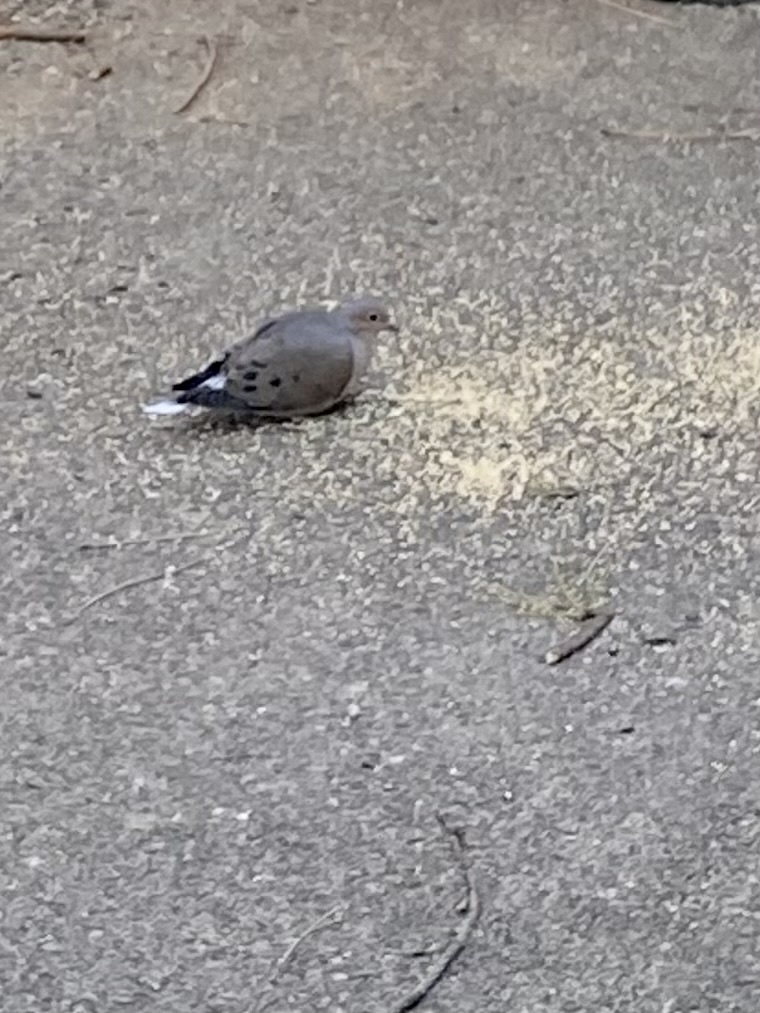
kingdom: Animalia
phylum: Chordata
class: Aves
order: Columbiformes
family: Columbidae
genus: Zenaida
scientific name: Zenaida macroura
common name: Mourning dove
